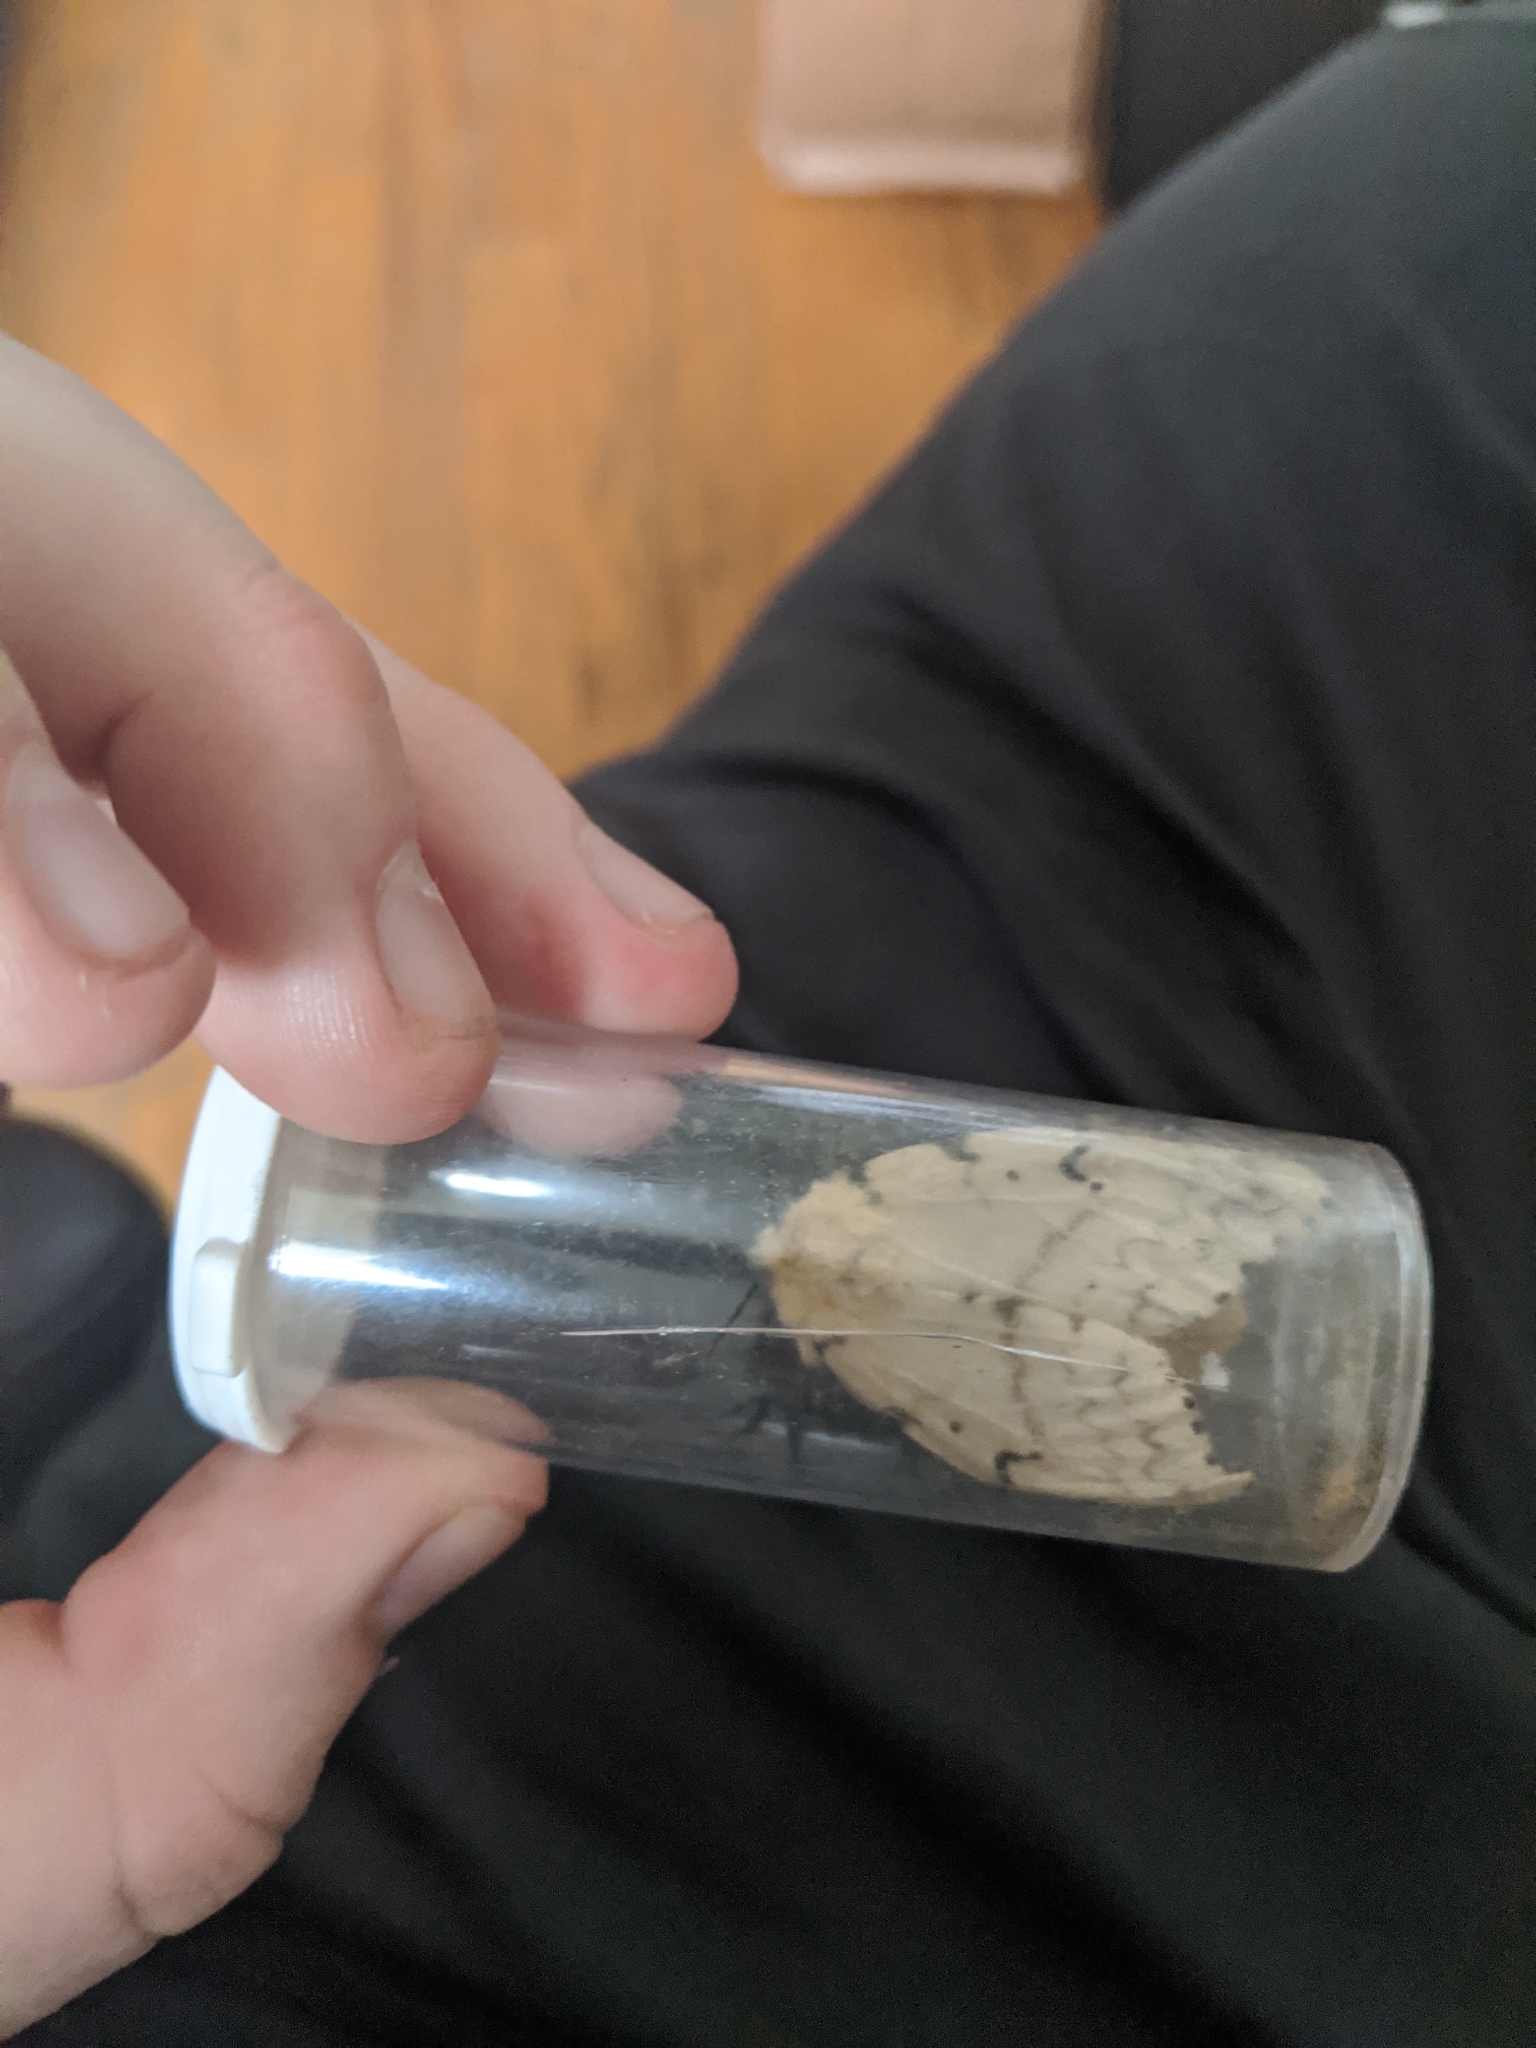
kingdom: Animalia
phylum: Arthropoda
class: Insecta
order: Lepidoptera
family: Erebidae
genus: Lymantria
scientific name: Lymantria dispar
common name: Gypsy moth
